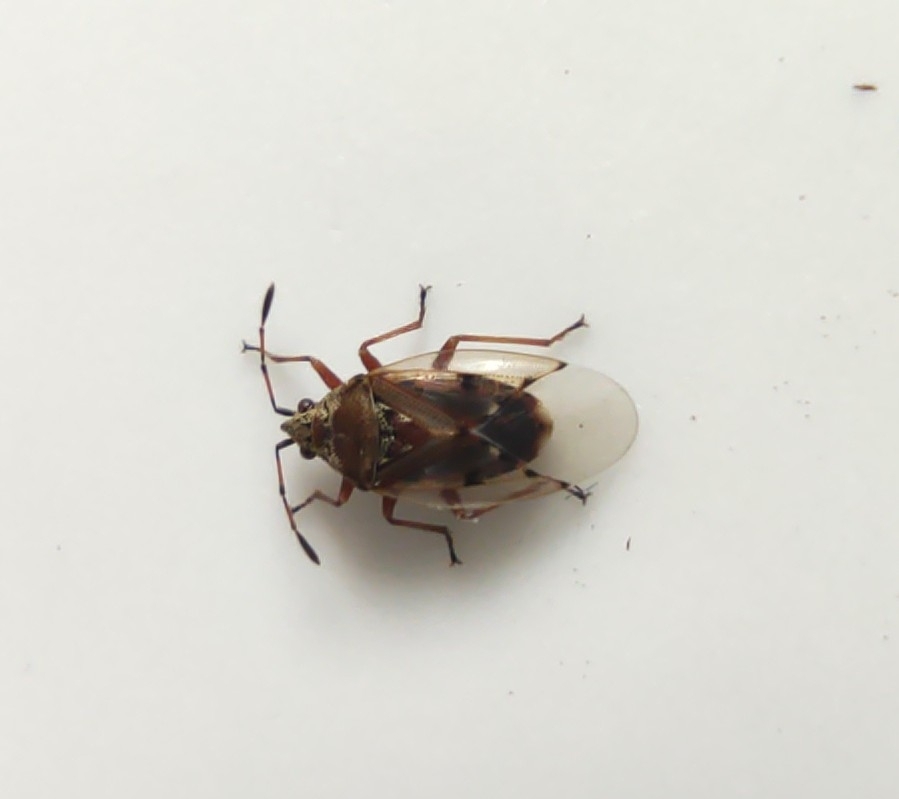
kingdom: Animalia
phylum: Arthropoda
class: Insecta
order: Hemiptera
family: Lygaeidae
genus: Kleidocerys
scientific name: Kleidocerys resedae
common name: Birch catkin bug
